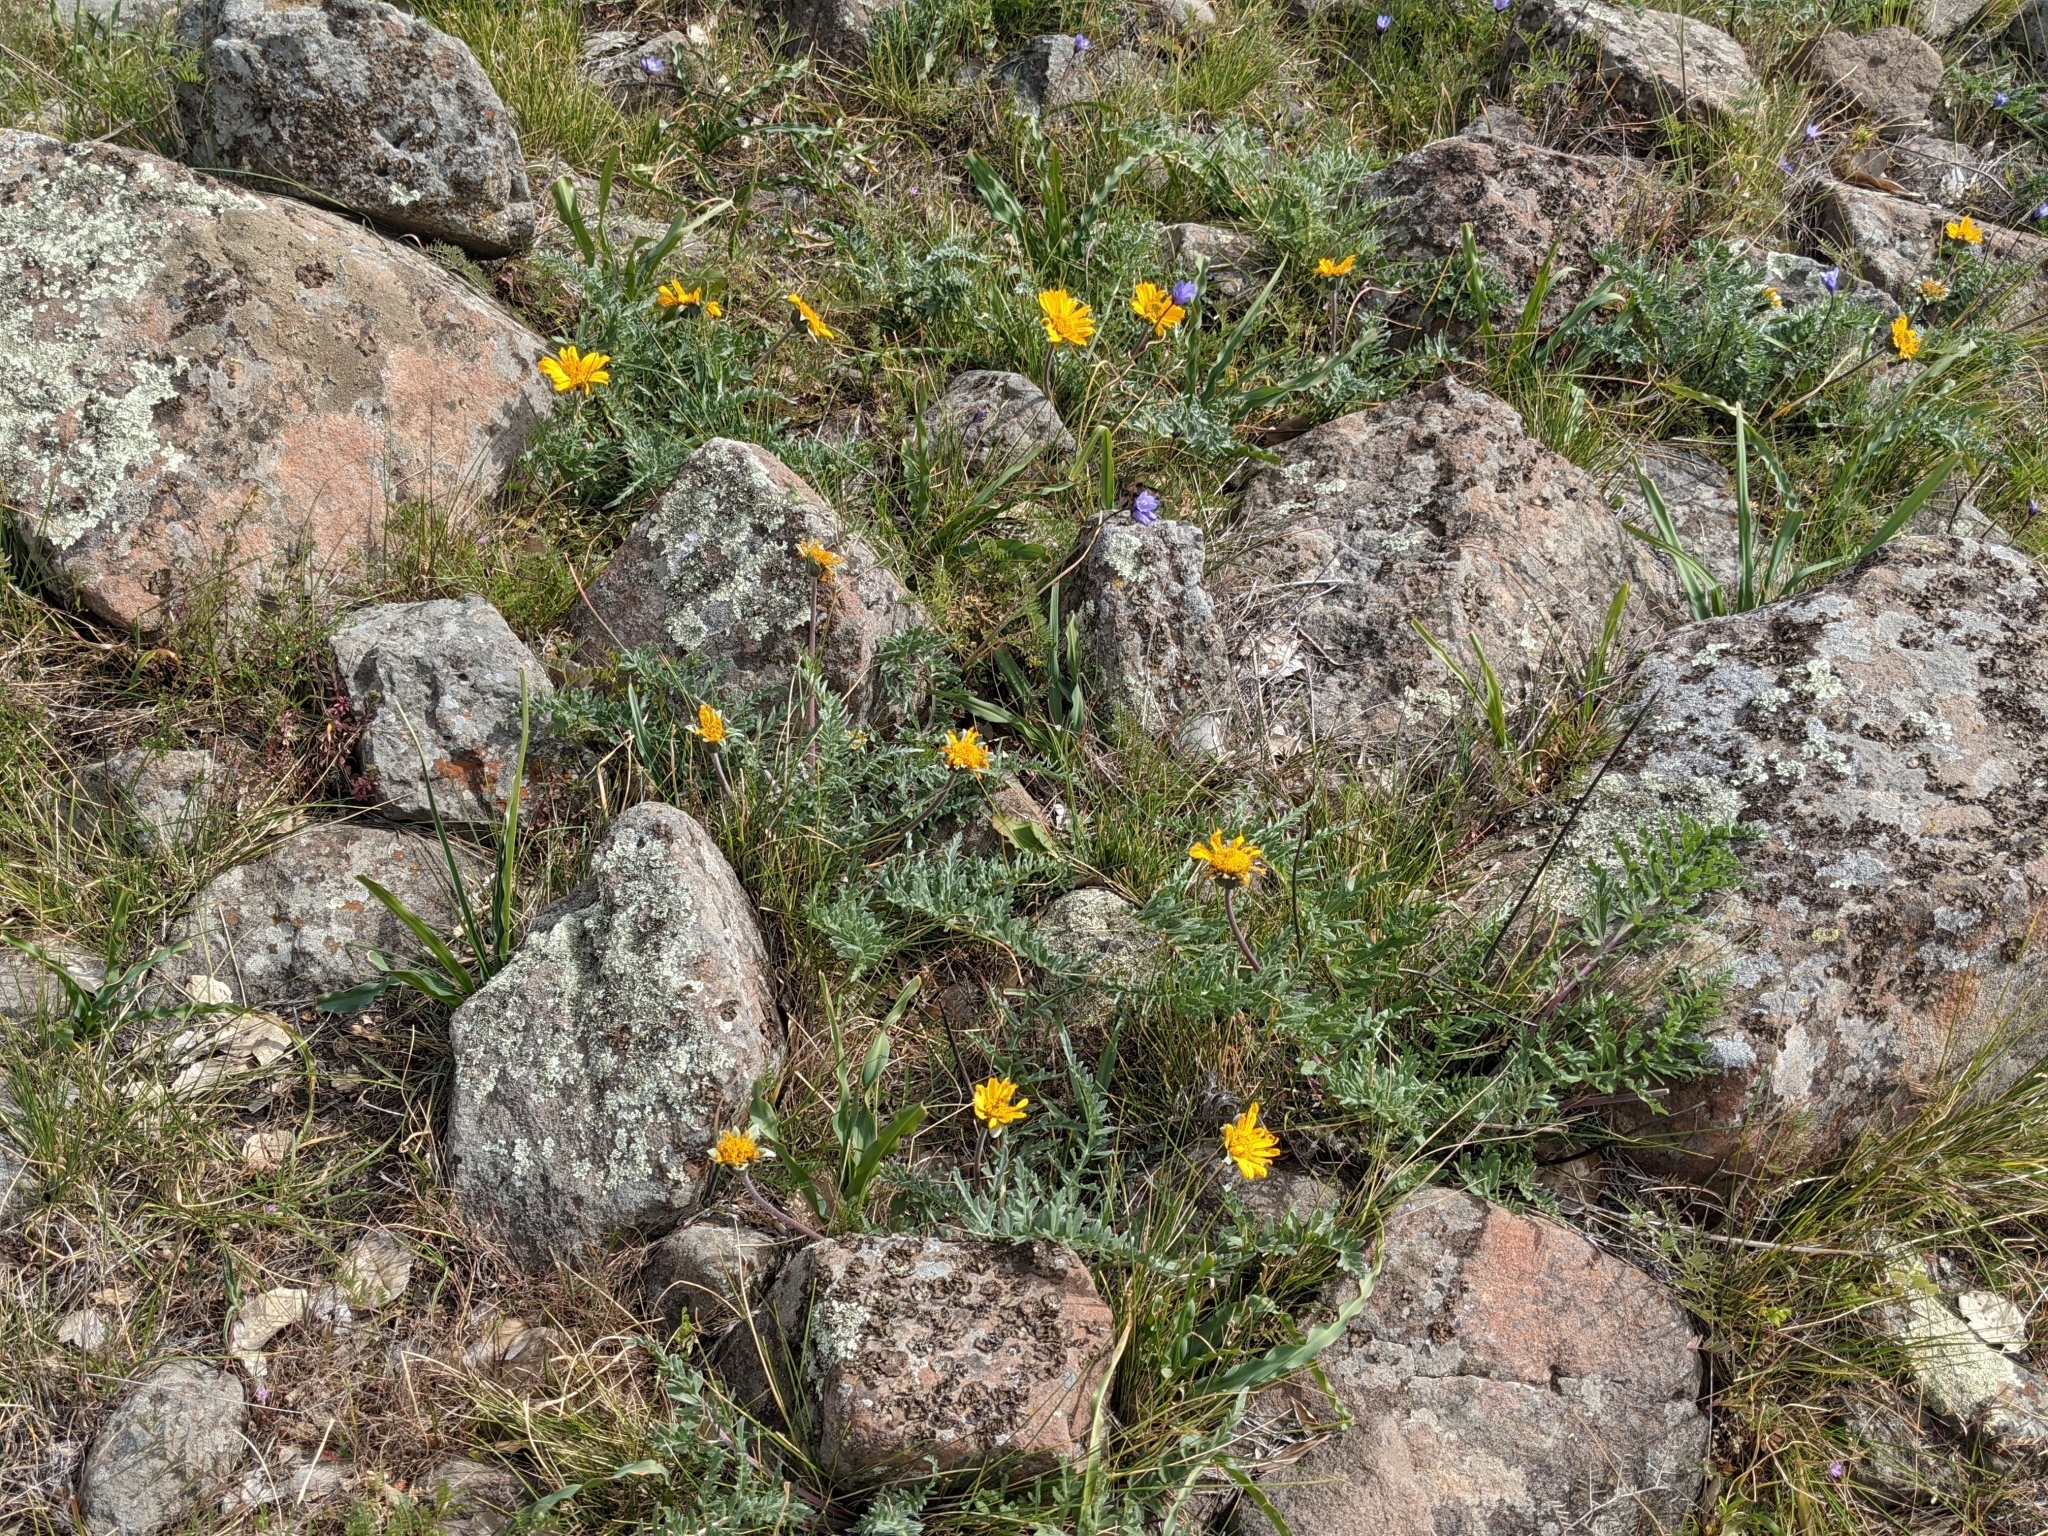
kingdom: Plantae
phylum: Tracheophyta
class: Magnoliopsida
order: Asterales
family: Asteraceae
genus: Balsamorhiza
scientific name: Balsamorhiza macrolepis
